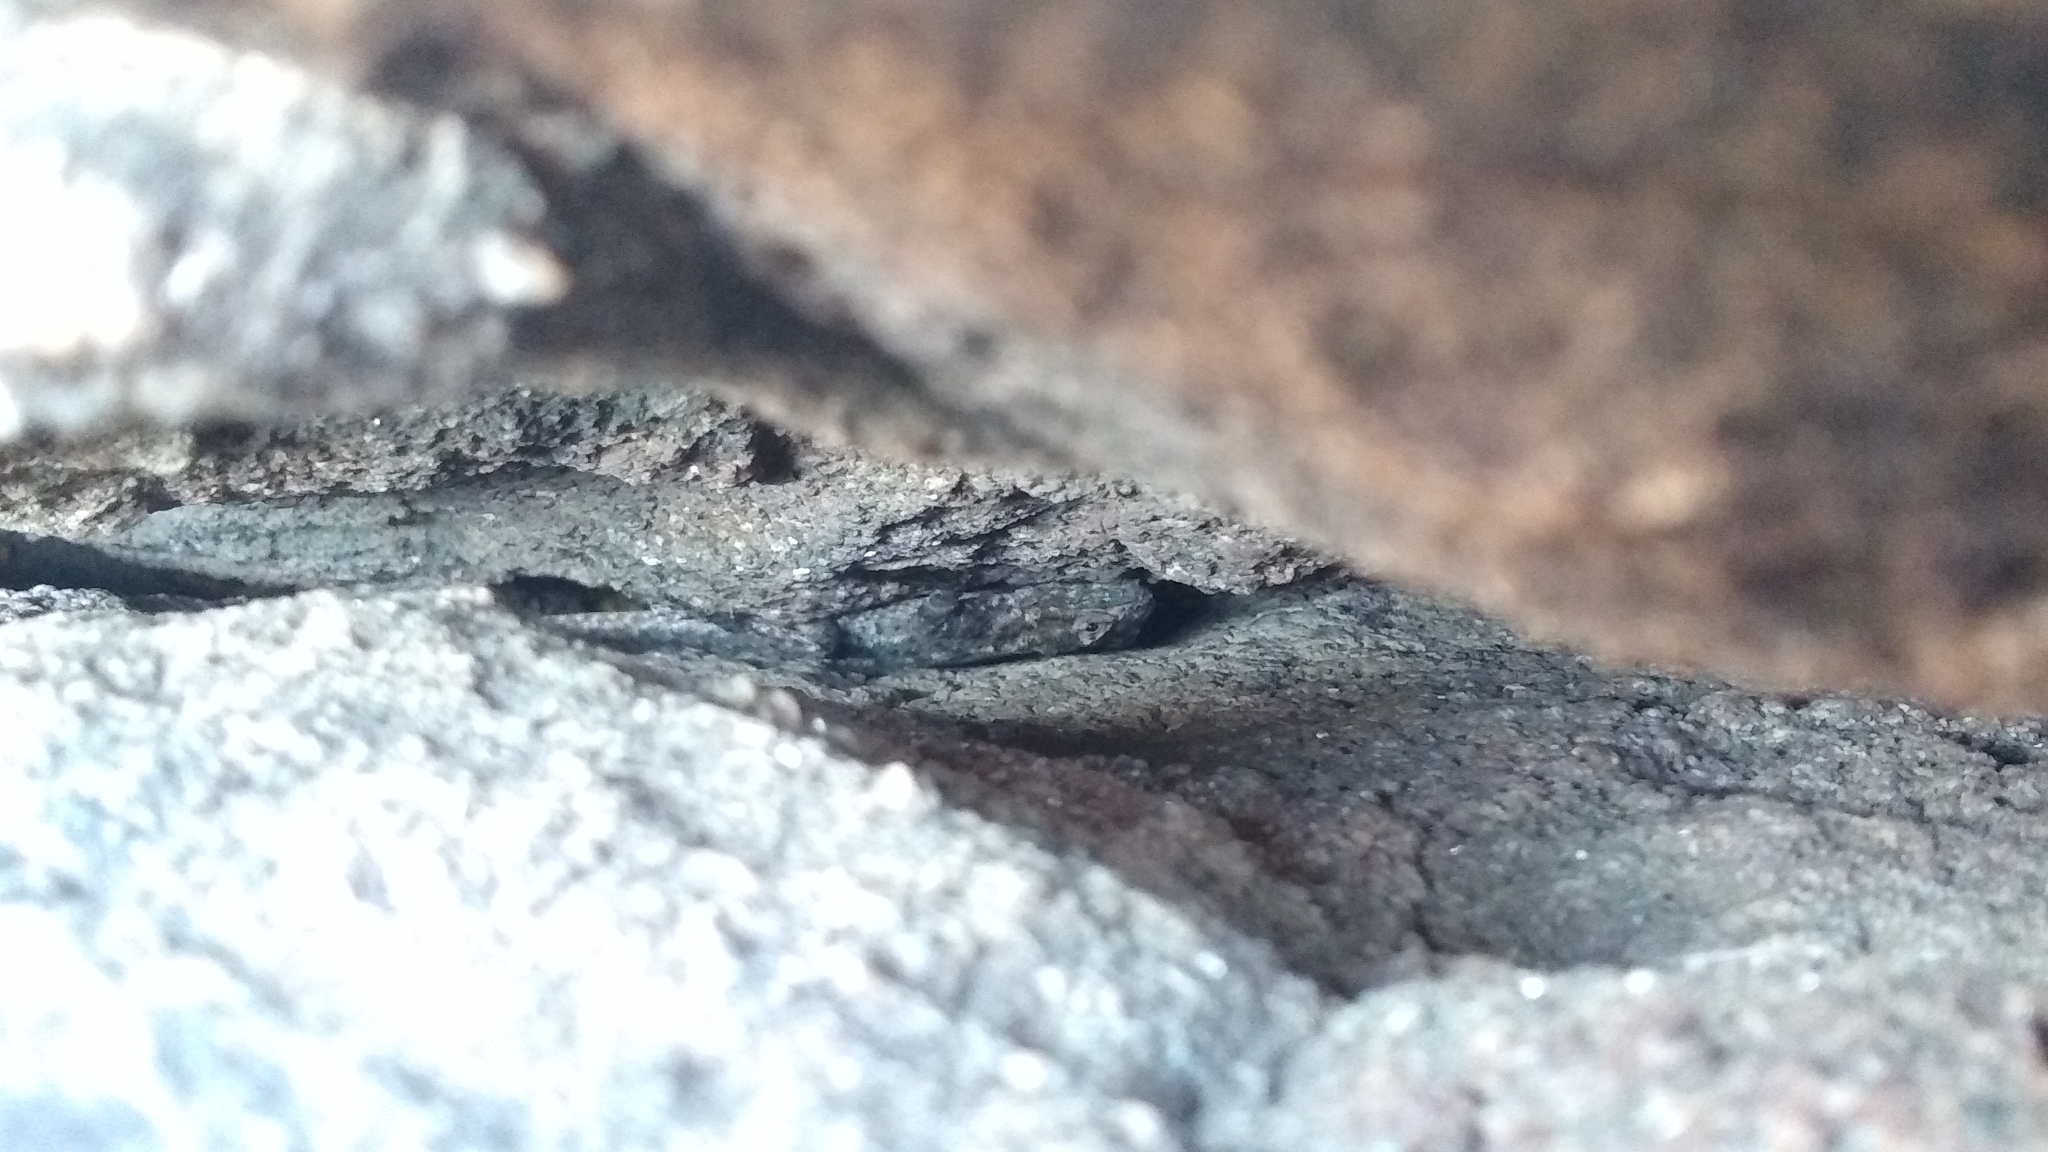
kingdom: Animalia
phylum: Chordata
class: Squamata
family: Tropiduridae
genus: Tropidurus
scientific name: Tropidurus spinulosus
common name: Spiny lava lizard
